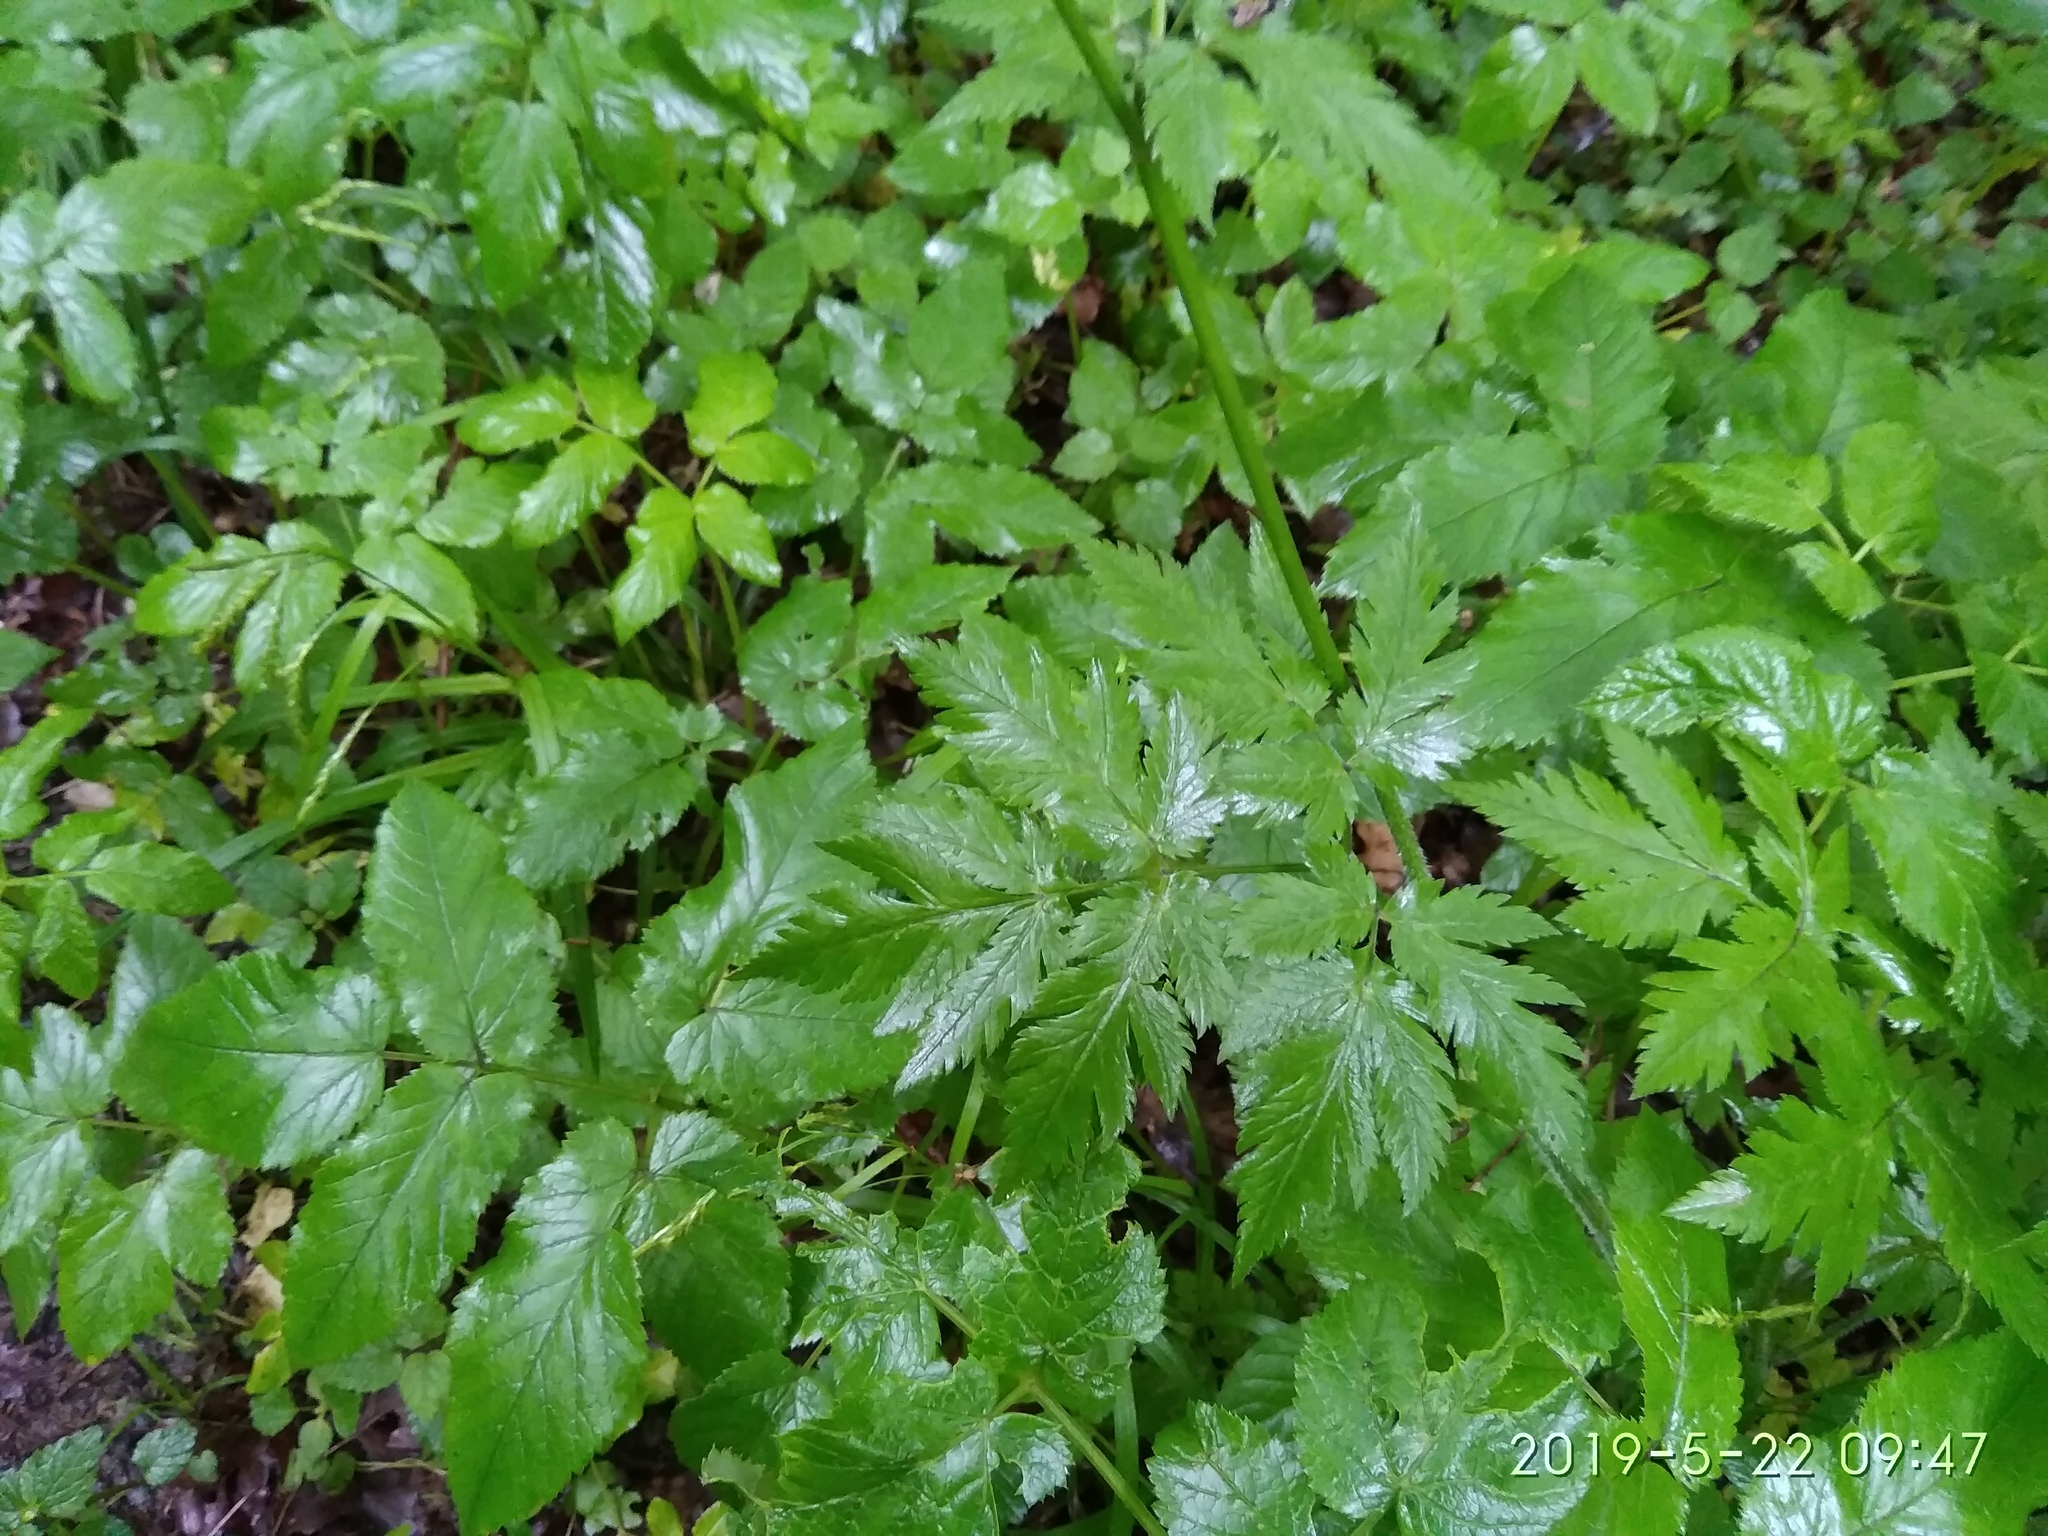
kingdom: Plantae
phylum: Tracheophyta
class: Magnoliopsida
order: Apiales
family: Apiaceae
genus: Chaerophyllum
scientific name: Chaerophyllum hirsutum
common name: Hairy chervil
